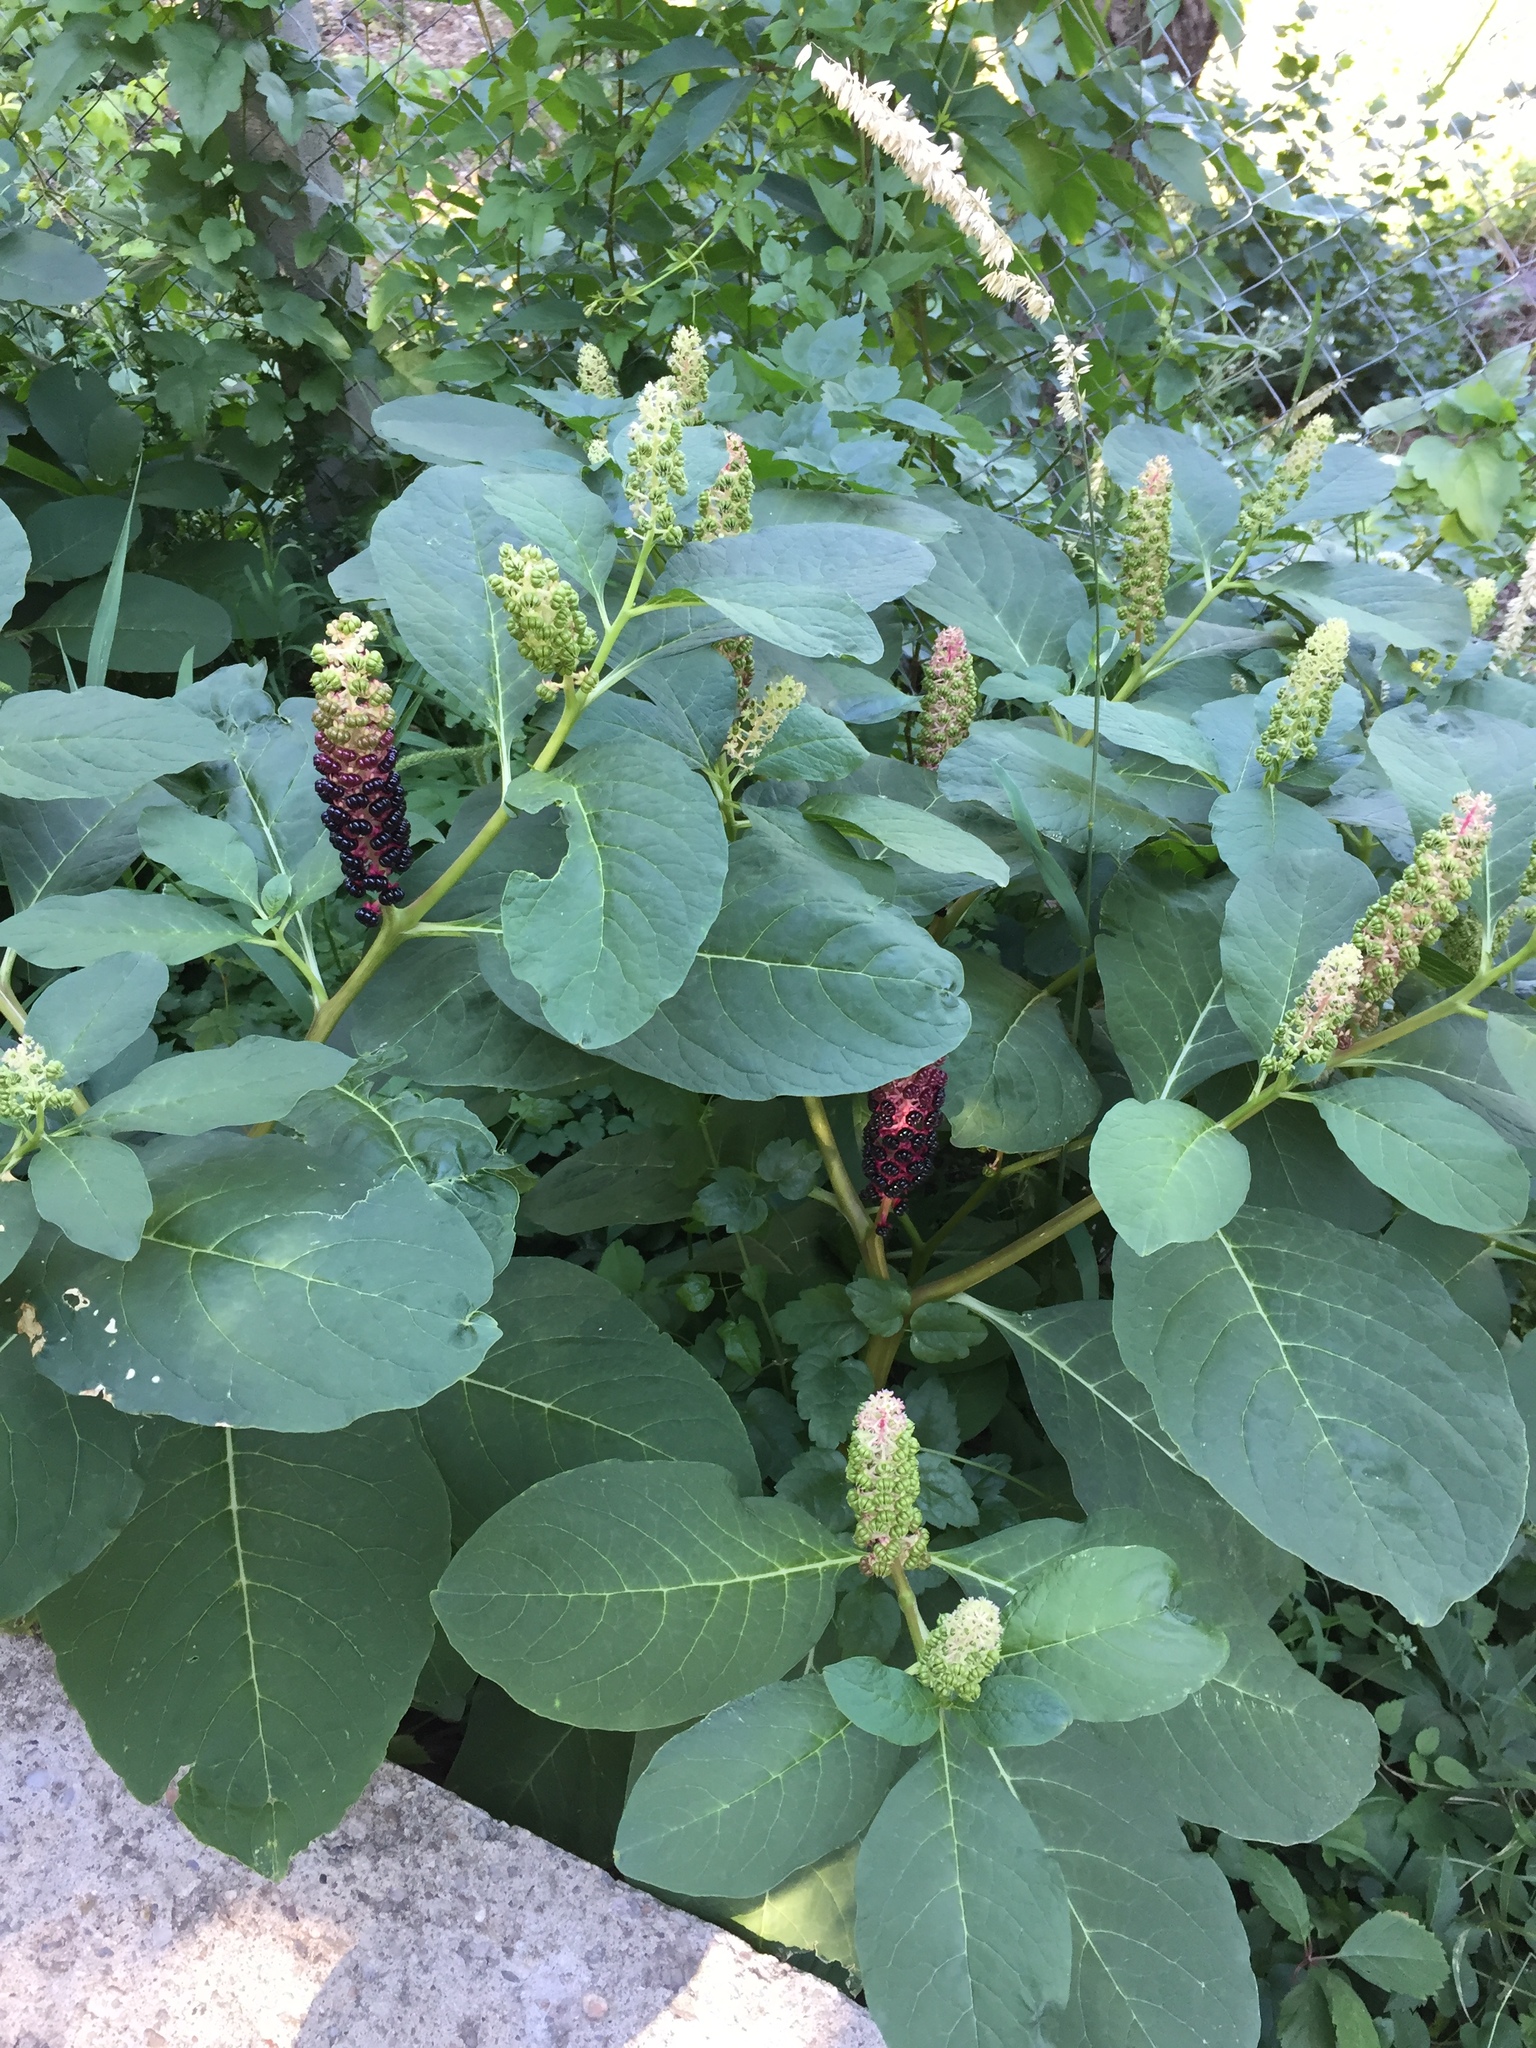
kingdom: Plantae
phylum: Tracheophyta
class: Magnoliopsida
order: Caryophyllales
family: Phytolaccaceae
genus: Phytolacca
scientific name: Phytolacca acinosa
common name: Indian pokeweed
